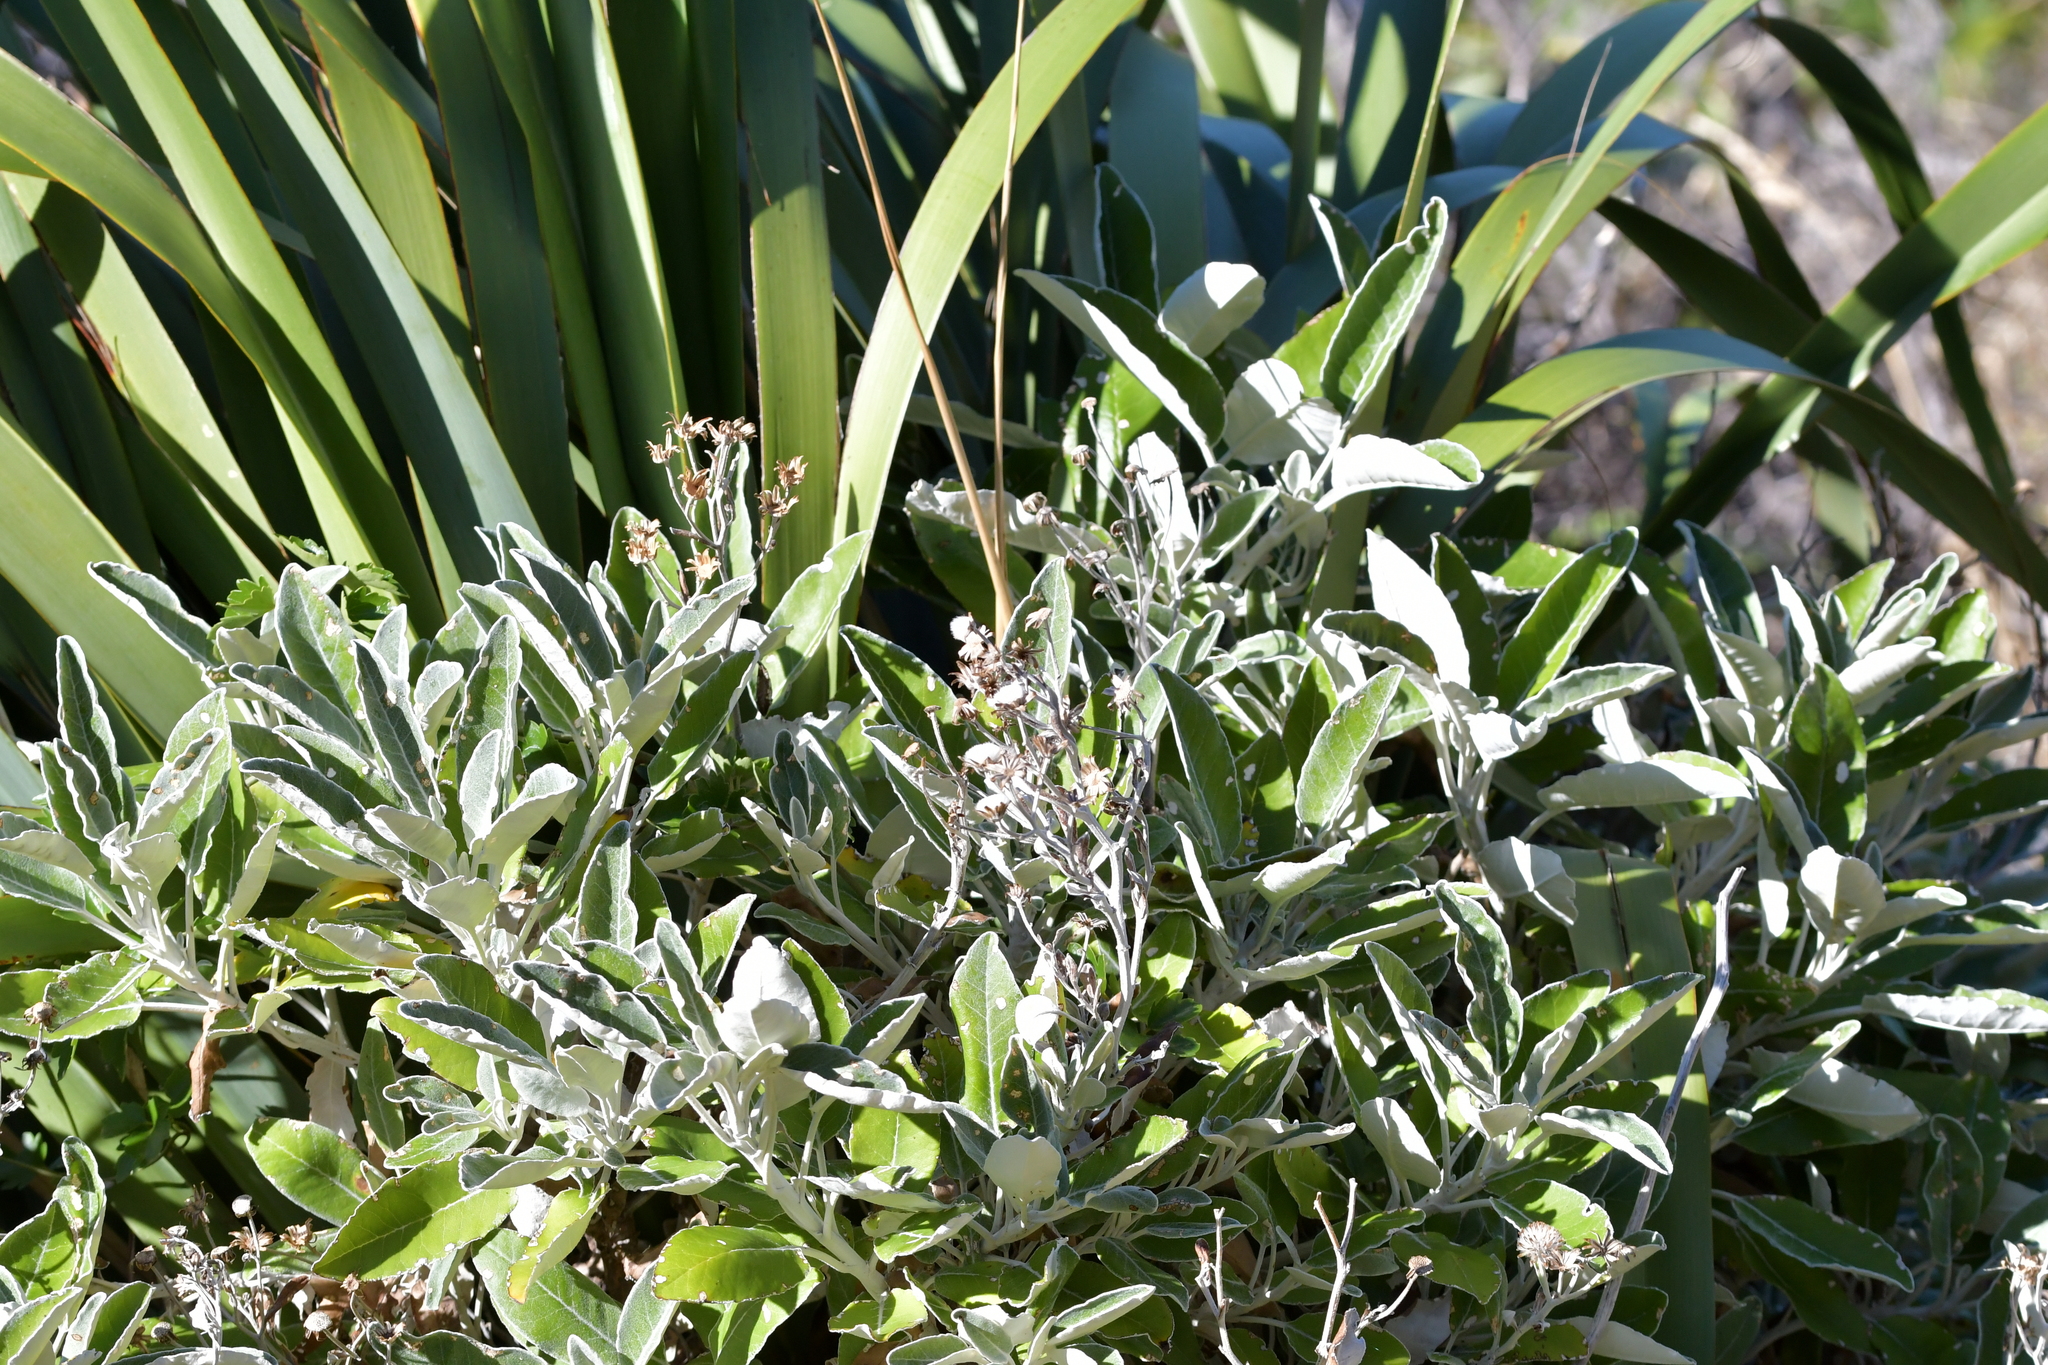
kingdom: Plantae
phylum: Tracheophyta
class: Magnoliopsida
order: Asterales
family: Asteraceae
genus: Brachyglottis
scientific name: Brachyglottis greyi
